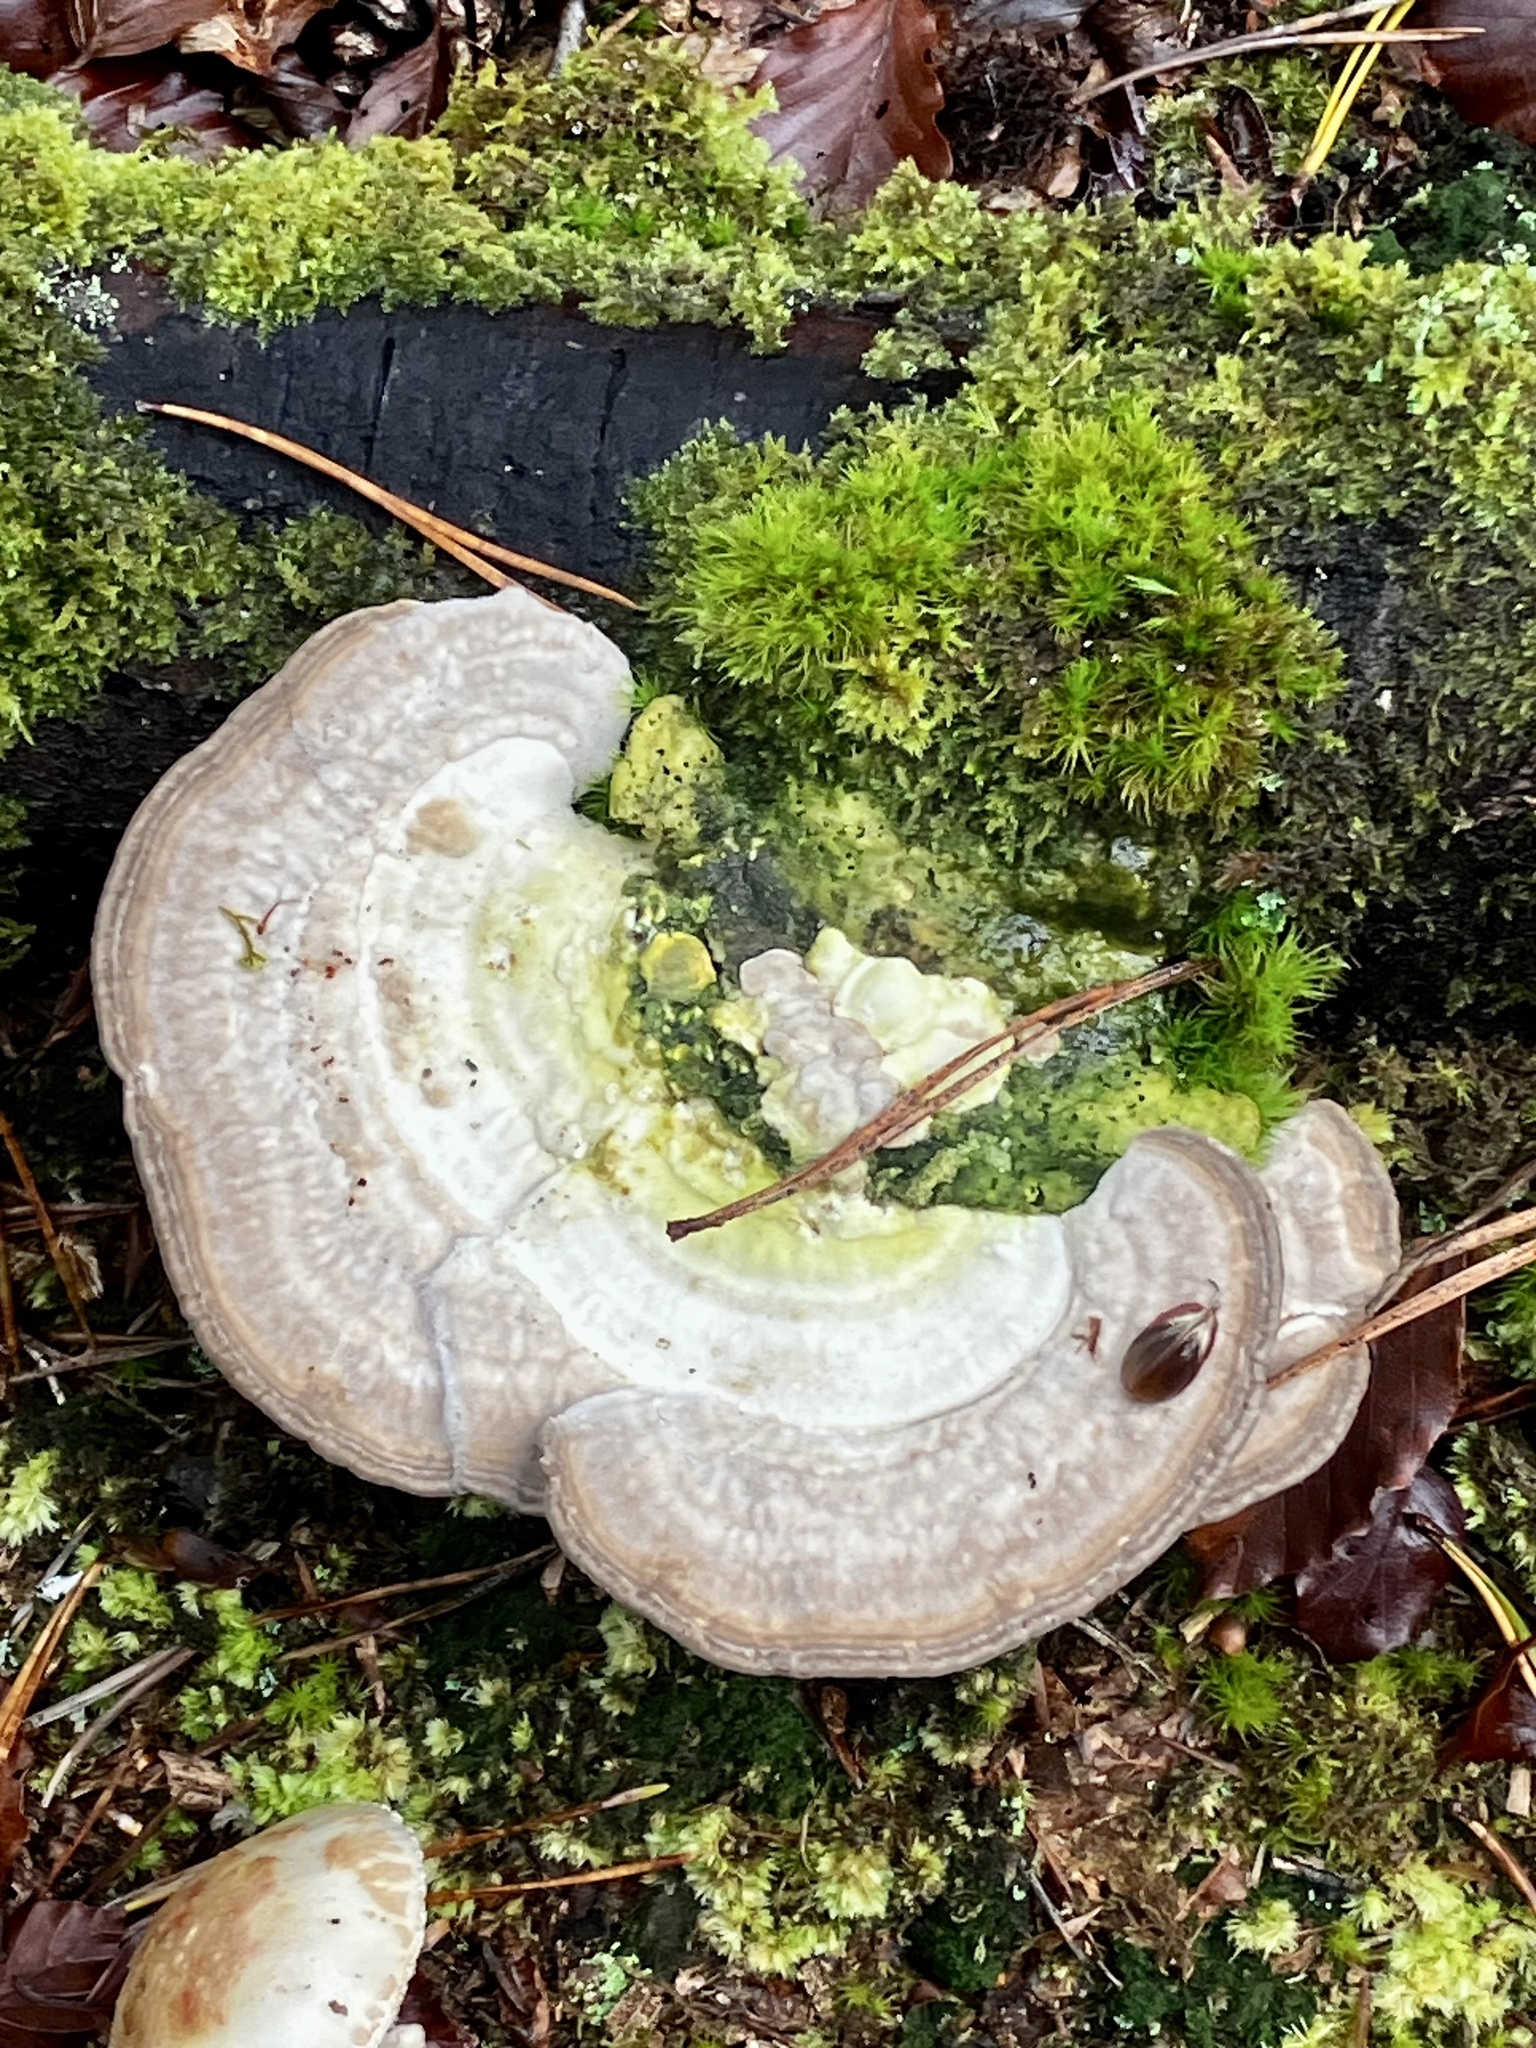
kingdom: Fungi
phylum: Basidiomycota
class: Agaricomycetes
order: Polyporales
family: Polyporaceae
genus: Trametes
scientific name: Trametes gibbosa
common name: Lumpy bracket
